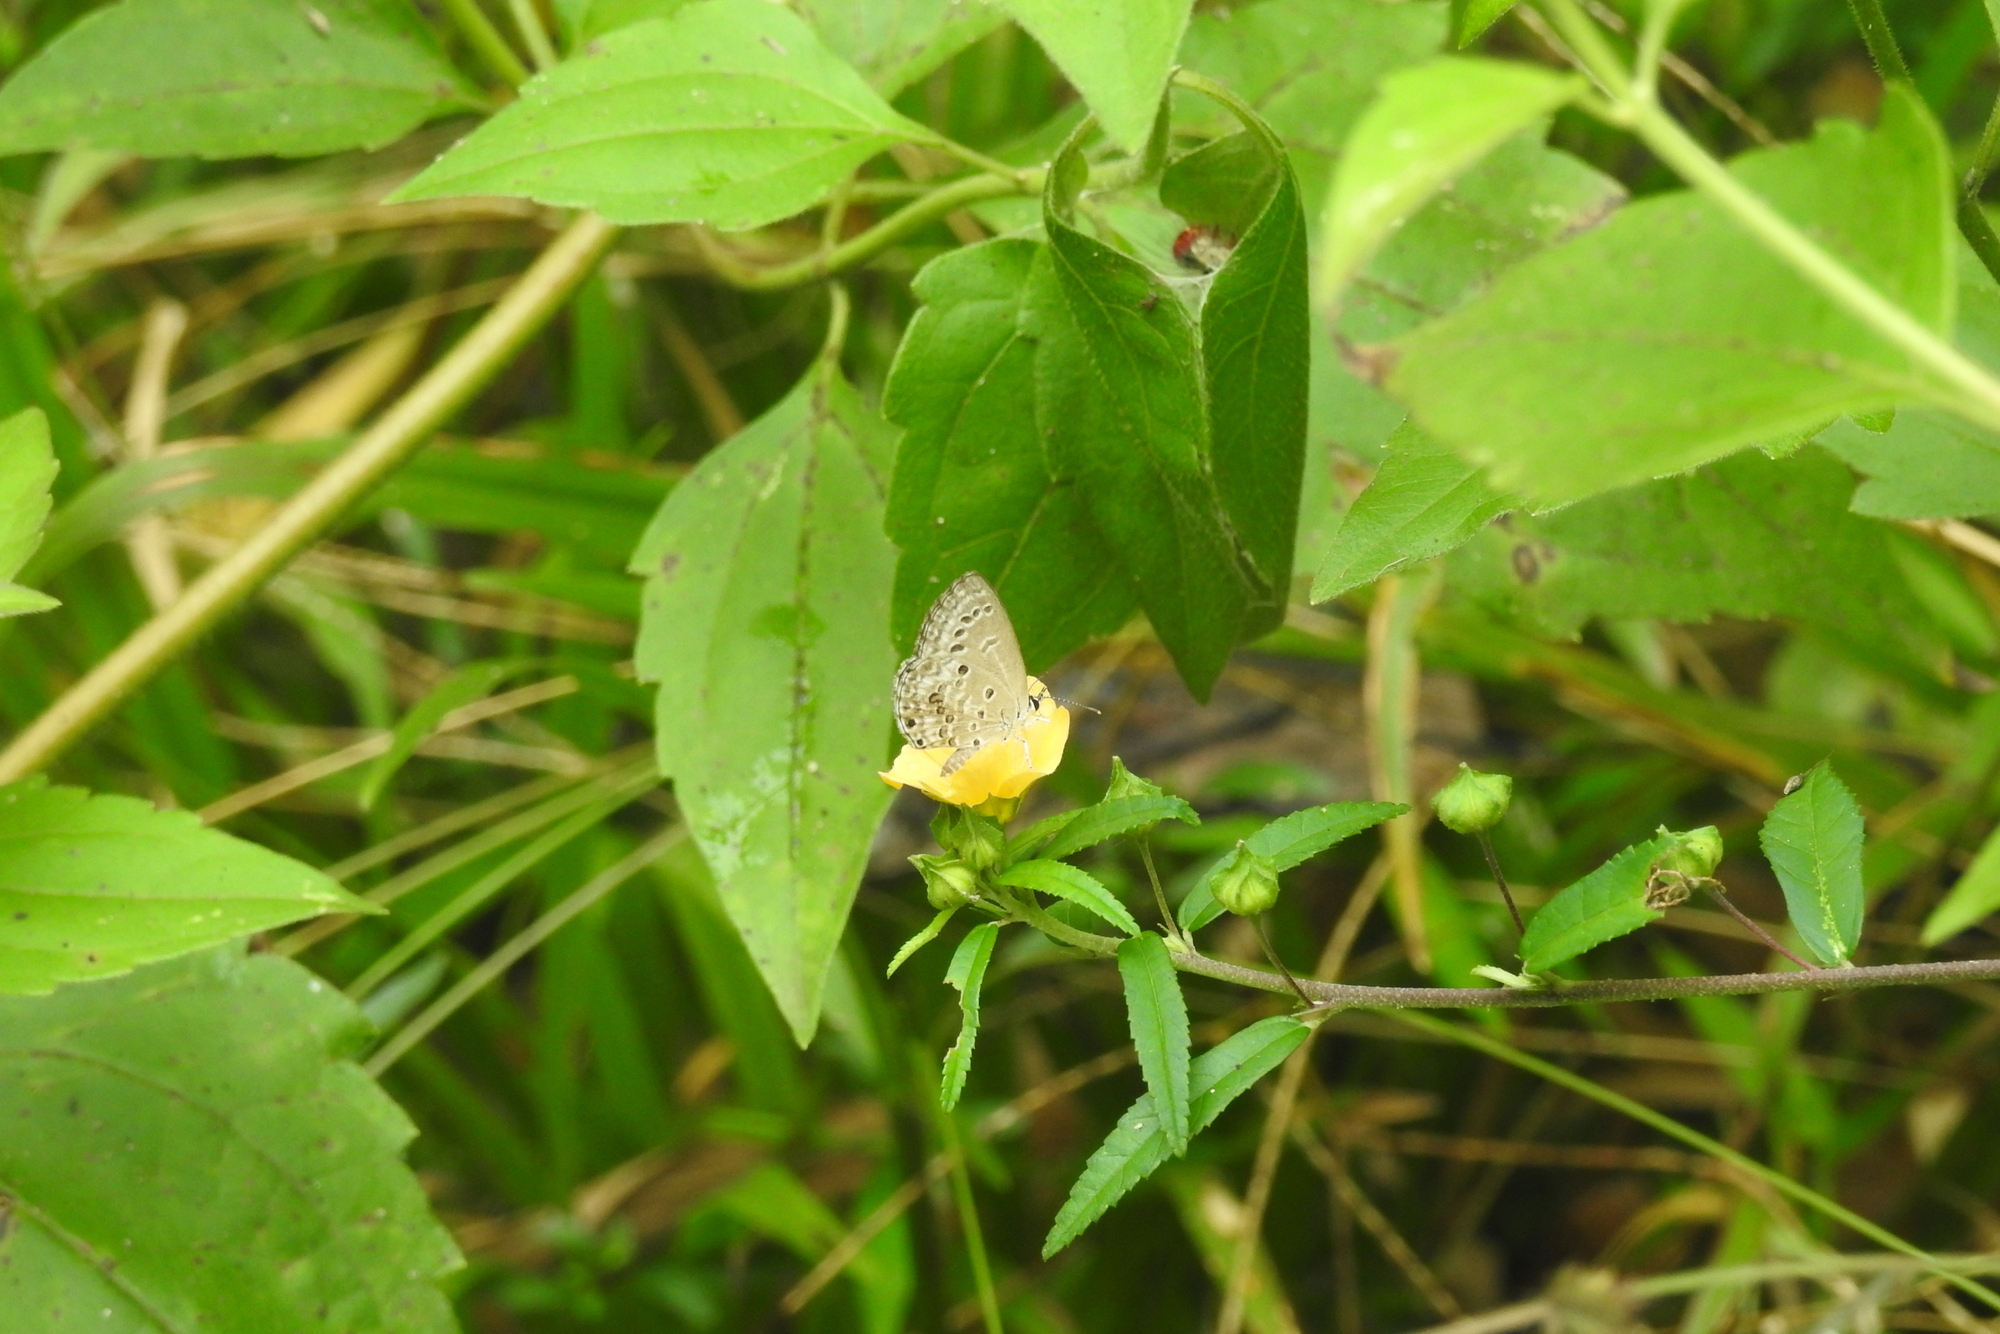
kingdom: Animalia
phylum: Arthropoda
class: Insecta
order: Lepidoptera
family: Lycaenidae
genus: Chilades
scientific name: Chilades laius
